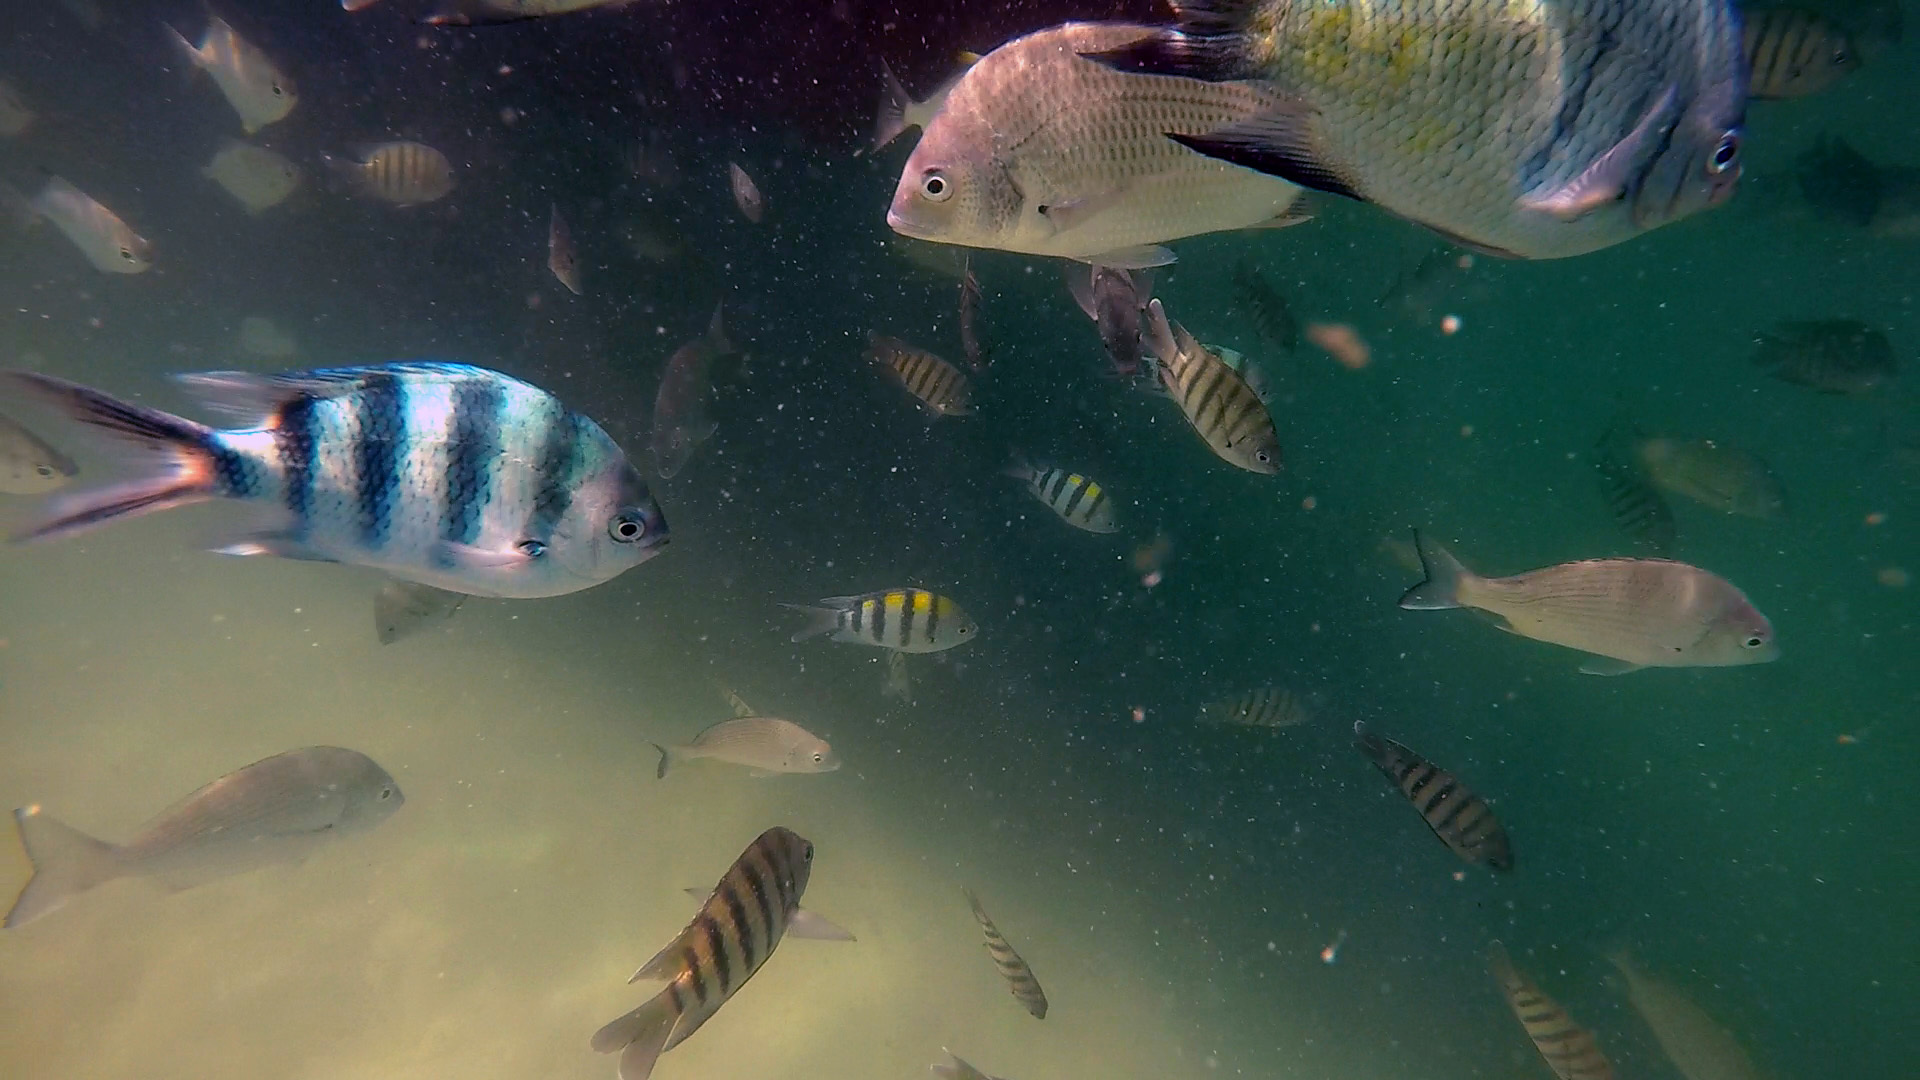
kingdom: Animalia
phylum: Chordata
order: Perciformes
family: Pomacentridae
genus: Abudefduf
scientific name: Abudefduf sexfasciatus
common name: Scissortail sergeant
